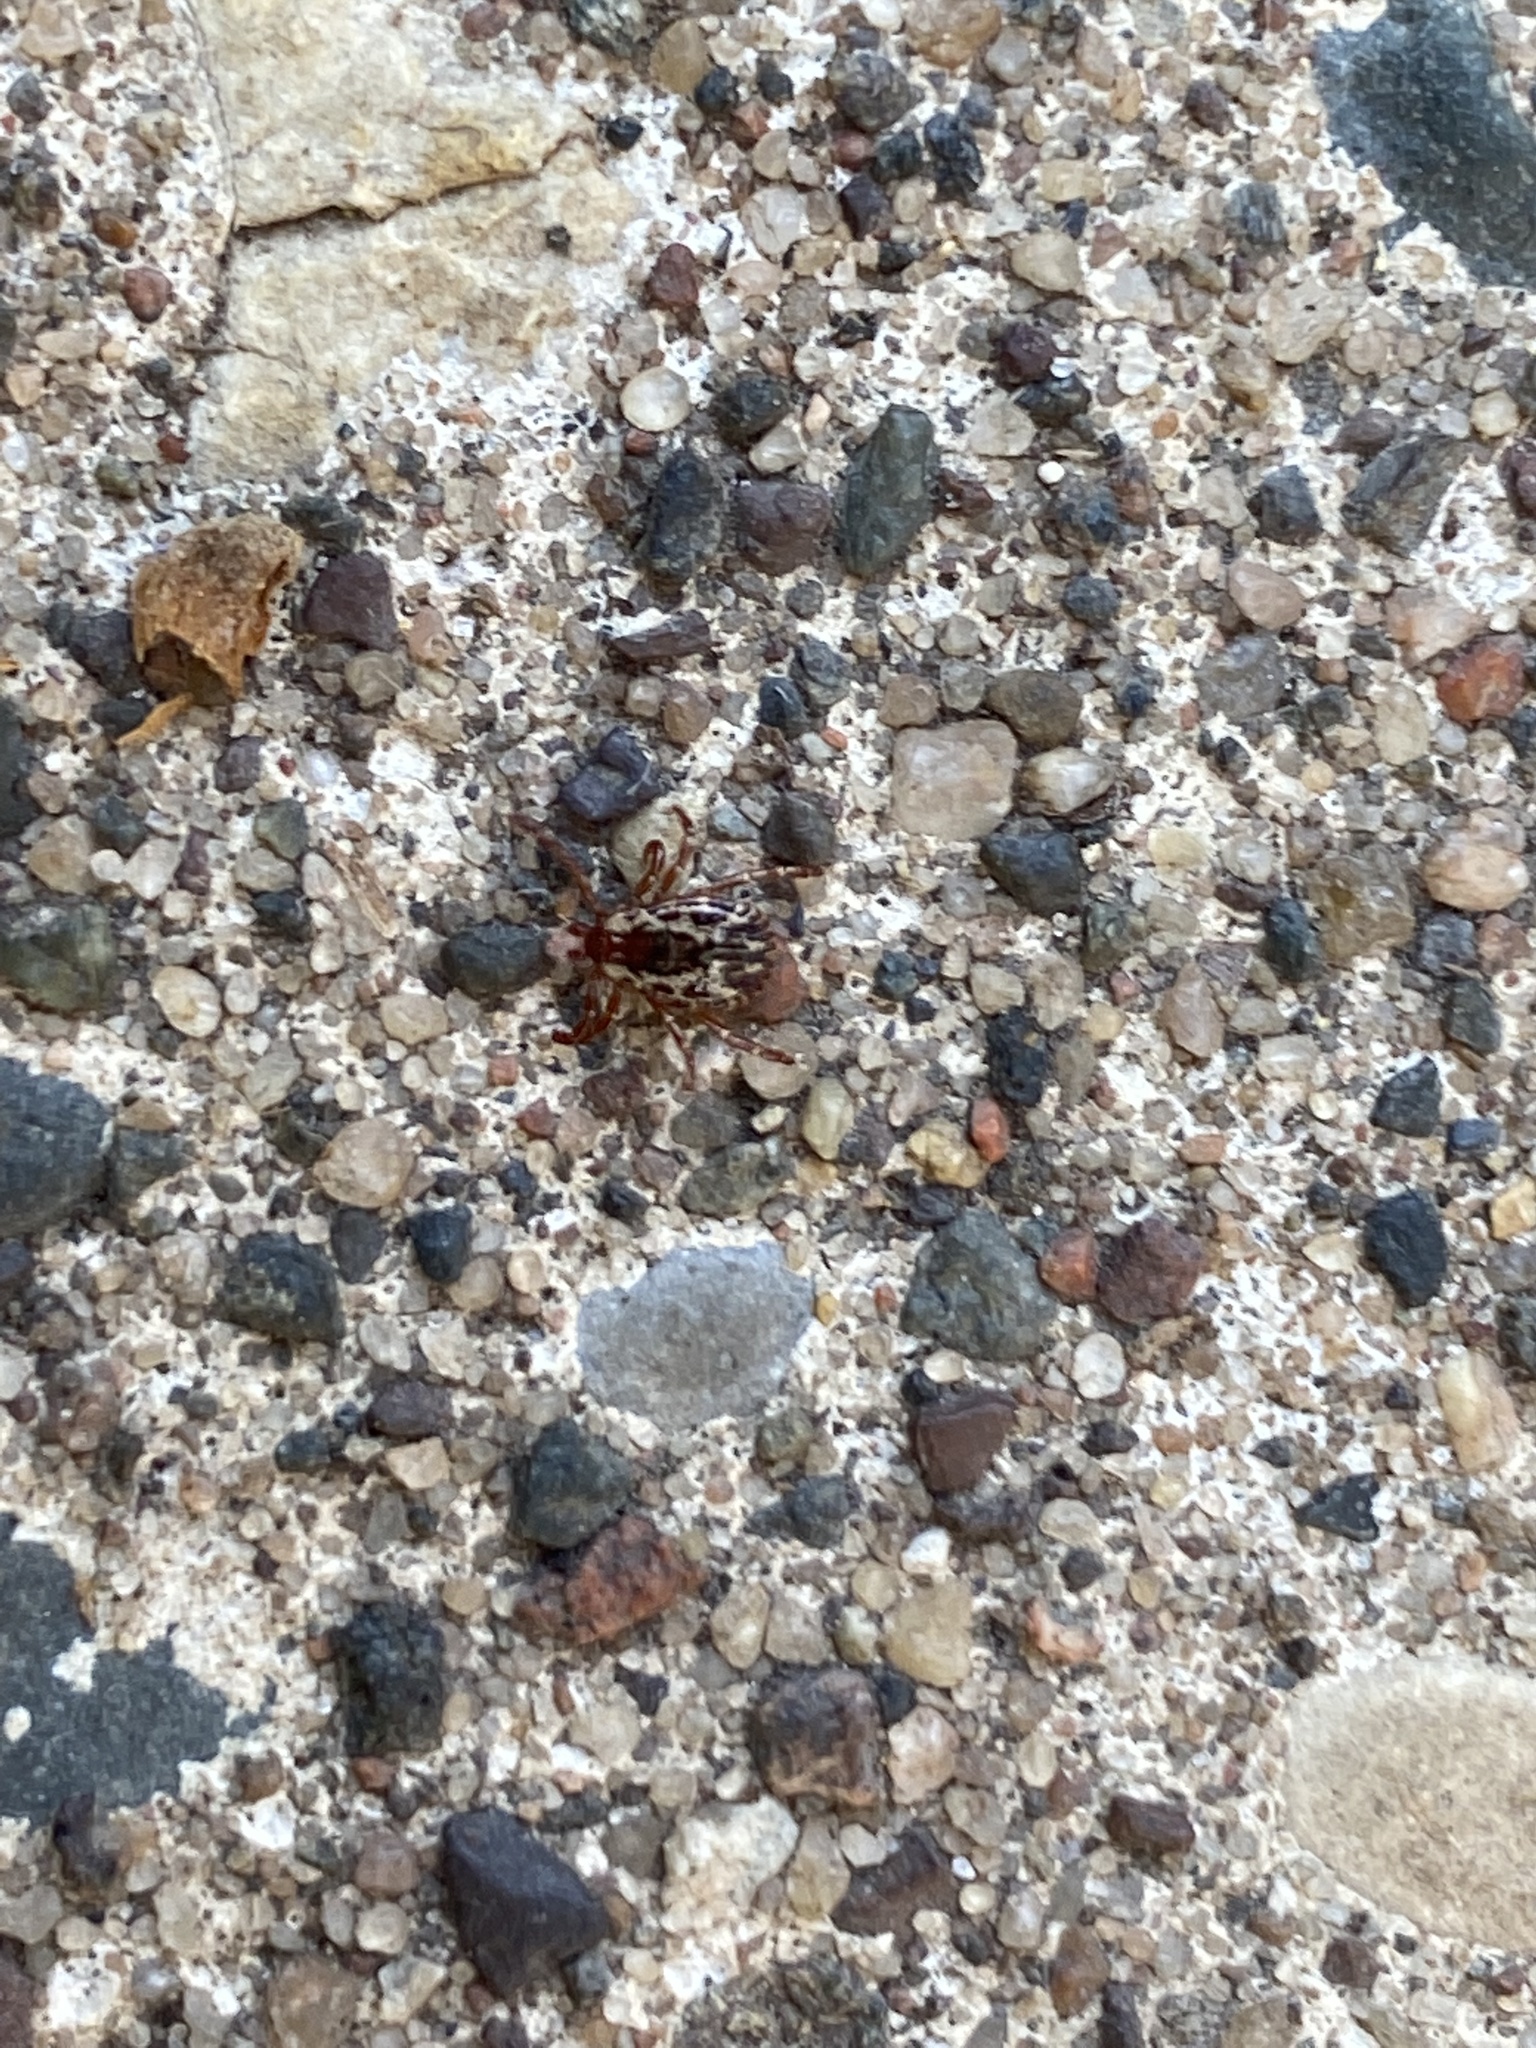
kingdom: Animalia
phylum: Arthropoda
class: Arachnida
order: Ixodida
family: Ixodidae
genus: Dermacentor
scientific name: Dermacentor variabilis
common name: American dog tick
